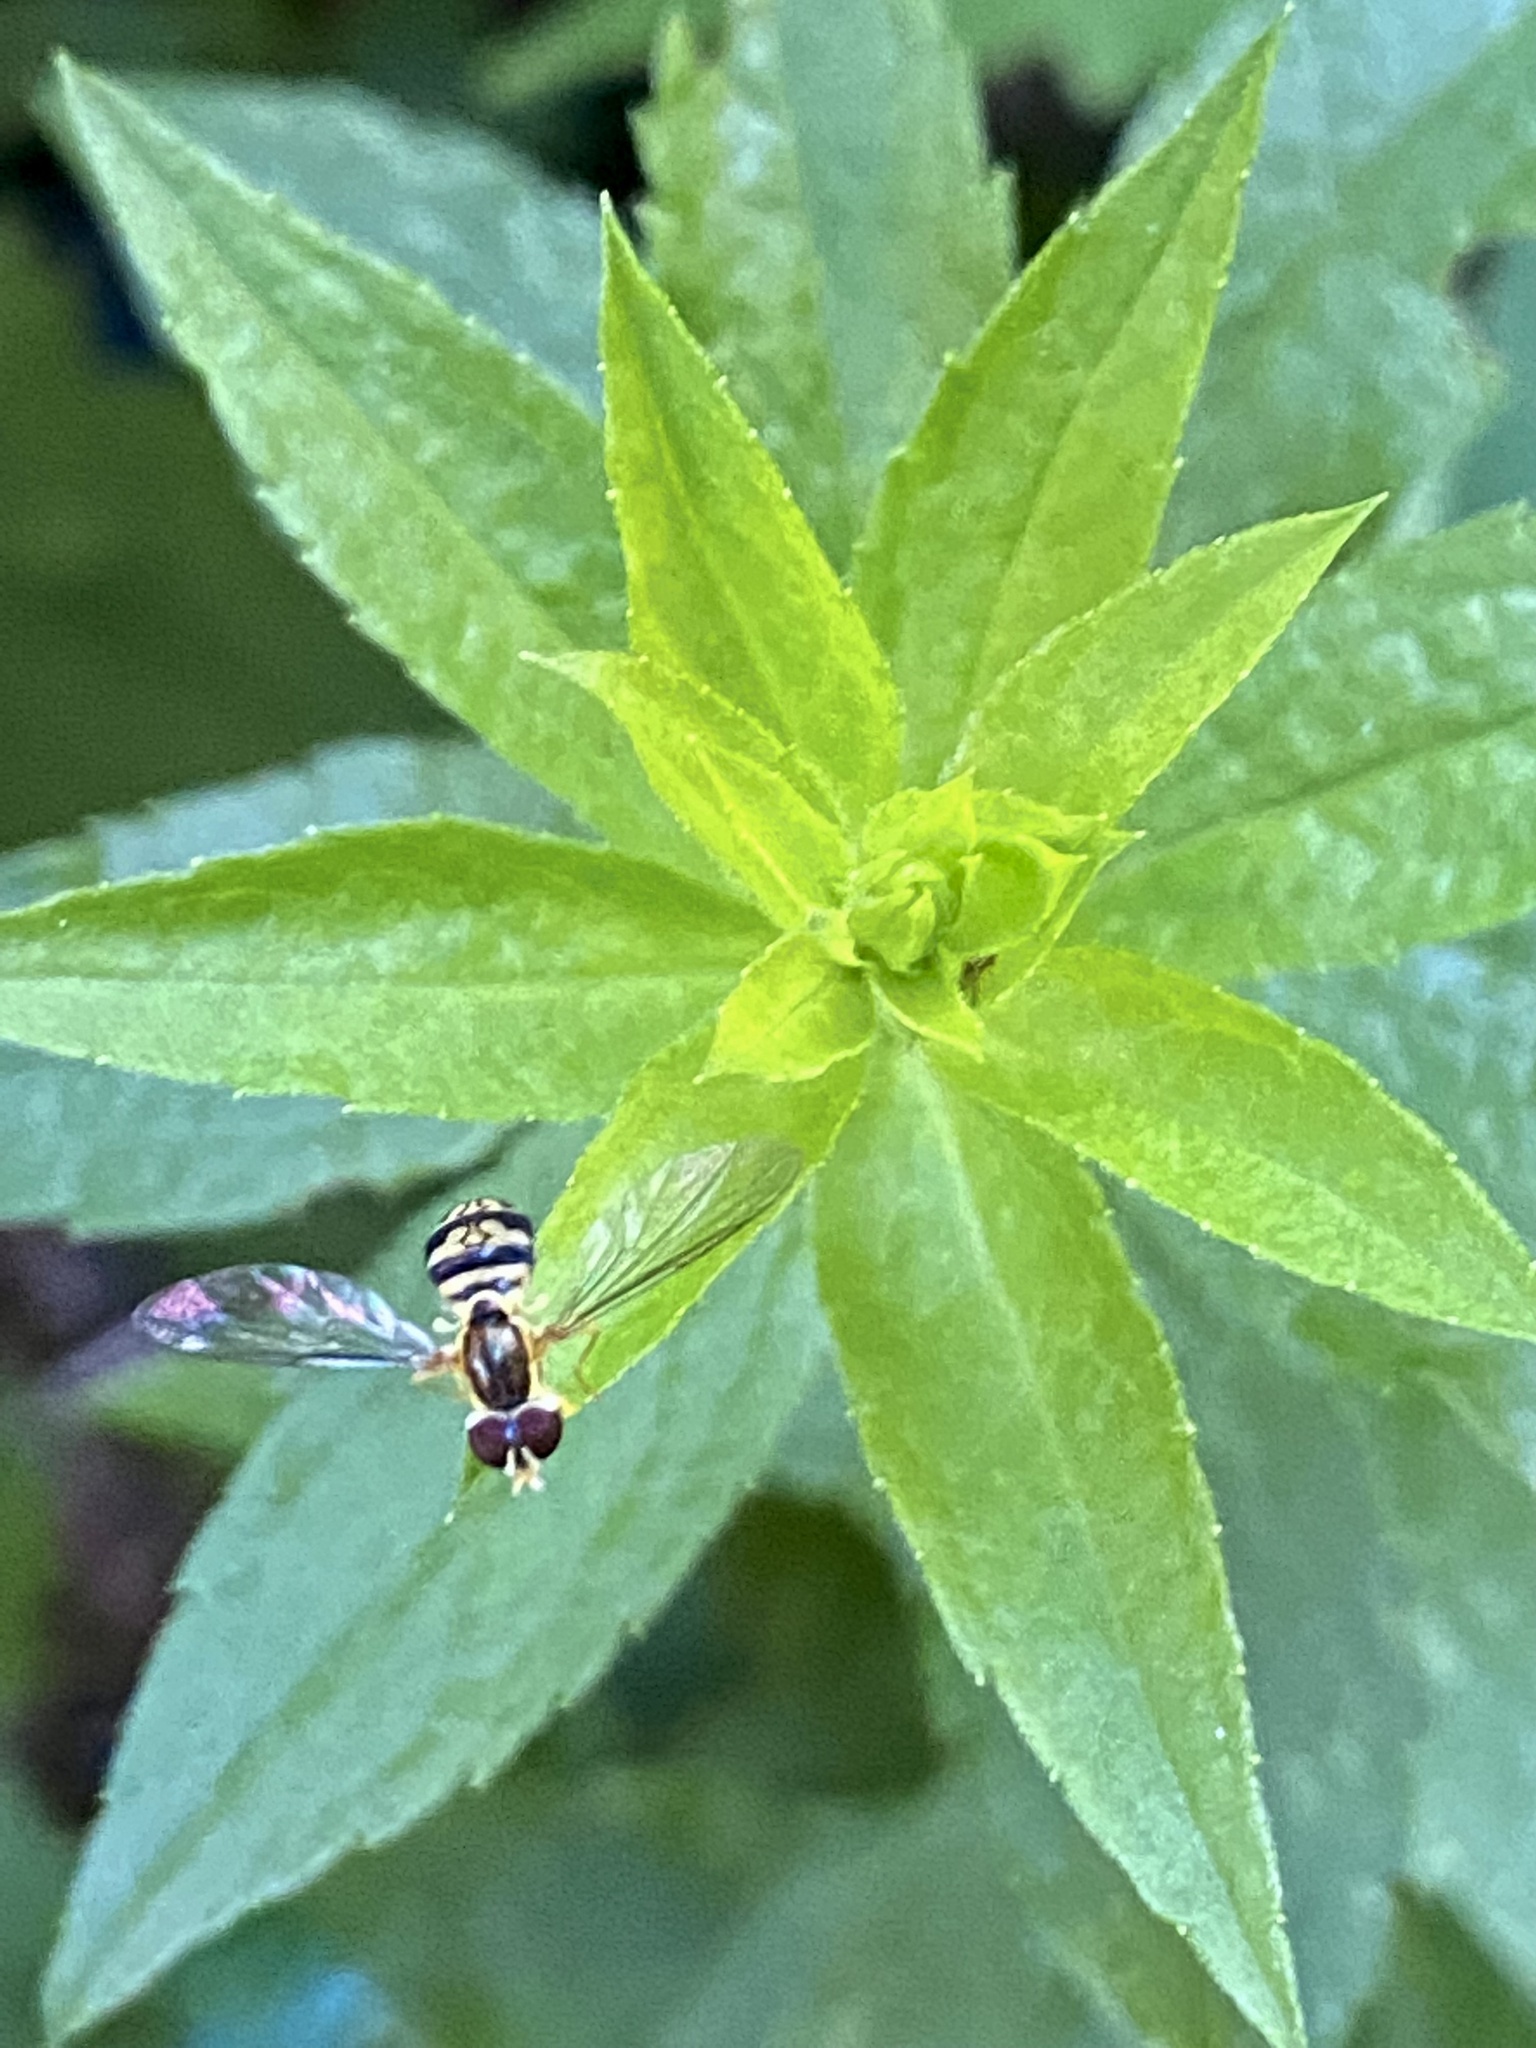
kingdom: Animalia
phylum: Arthropoda
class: Insecta
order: Diptera
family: Syrphidae
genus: Toxomerus
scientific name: Toxomerus geminatus
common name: Eastern calligrapher
